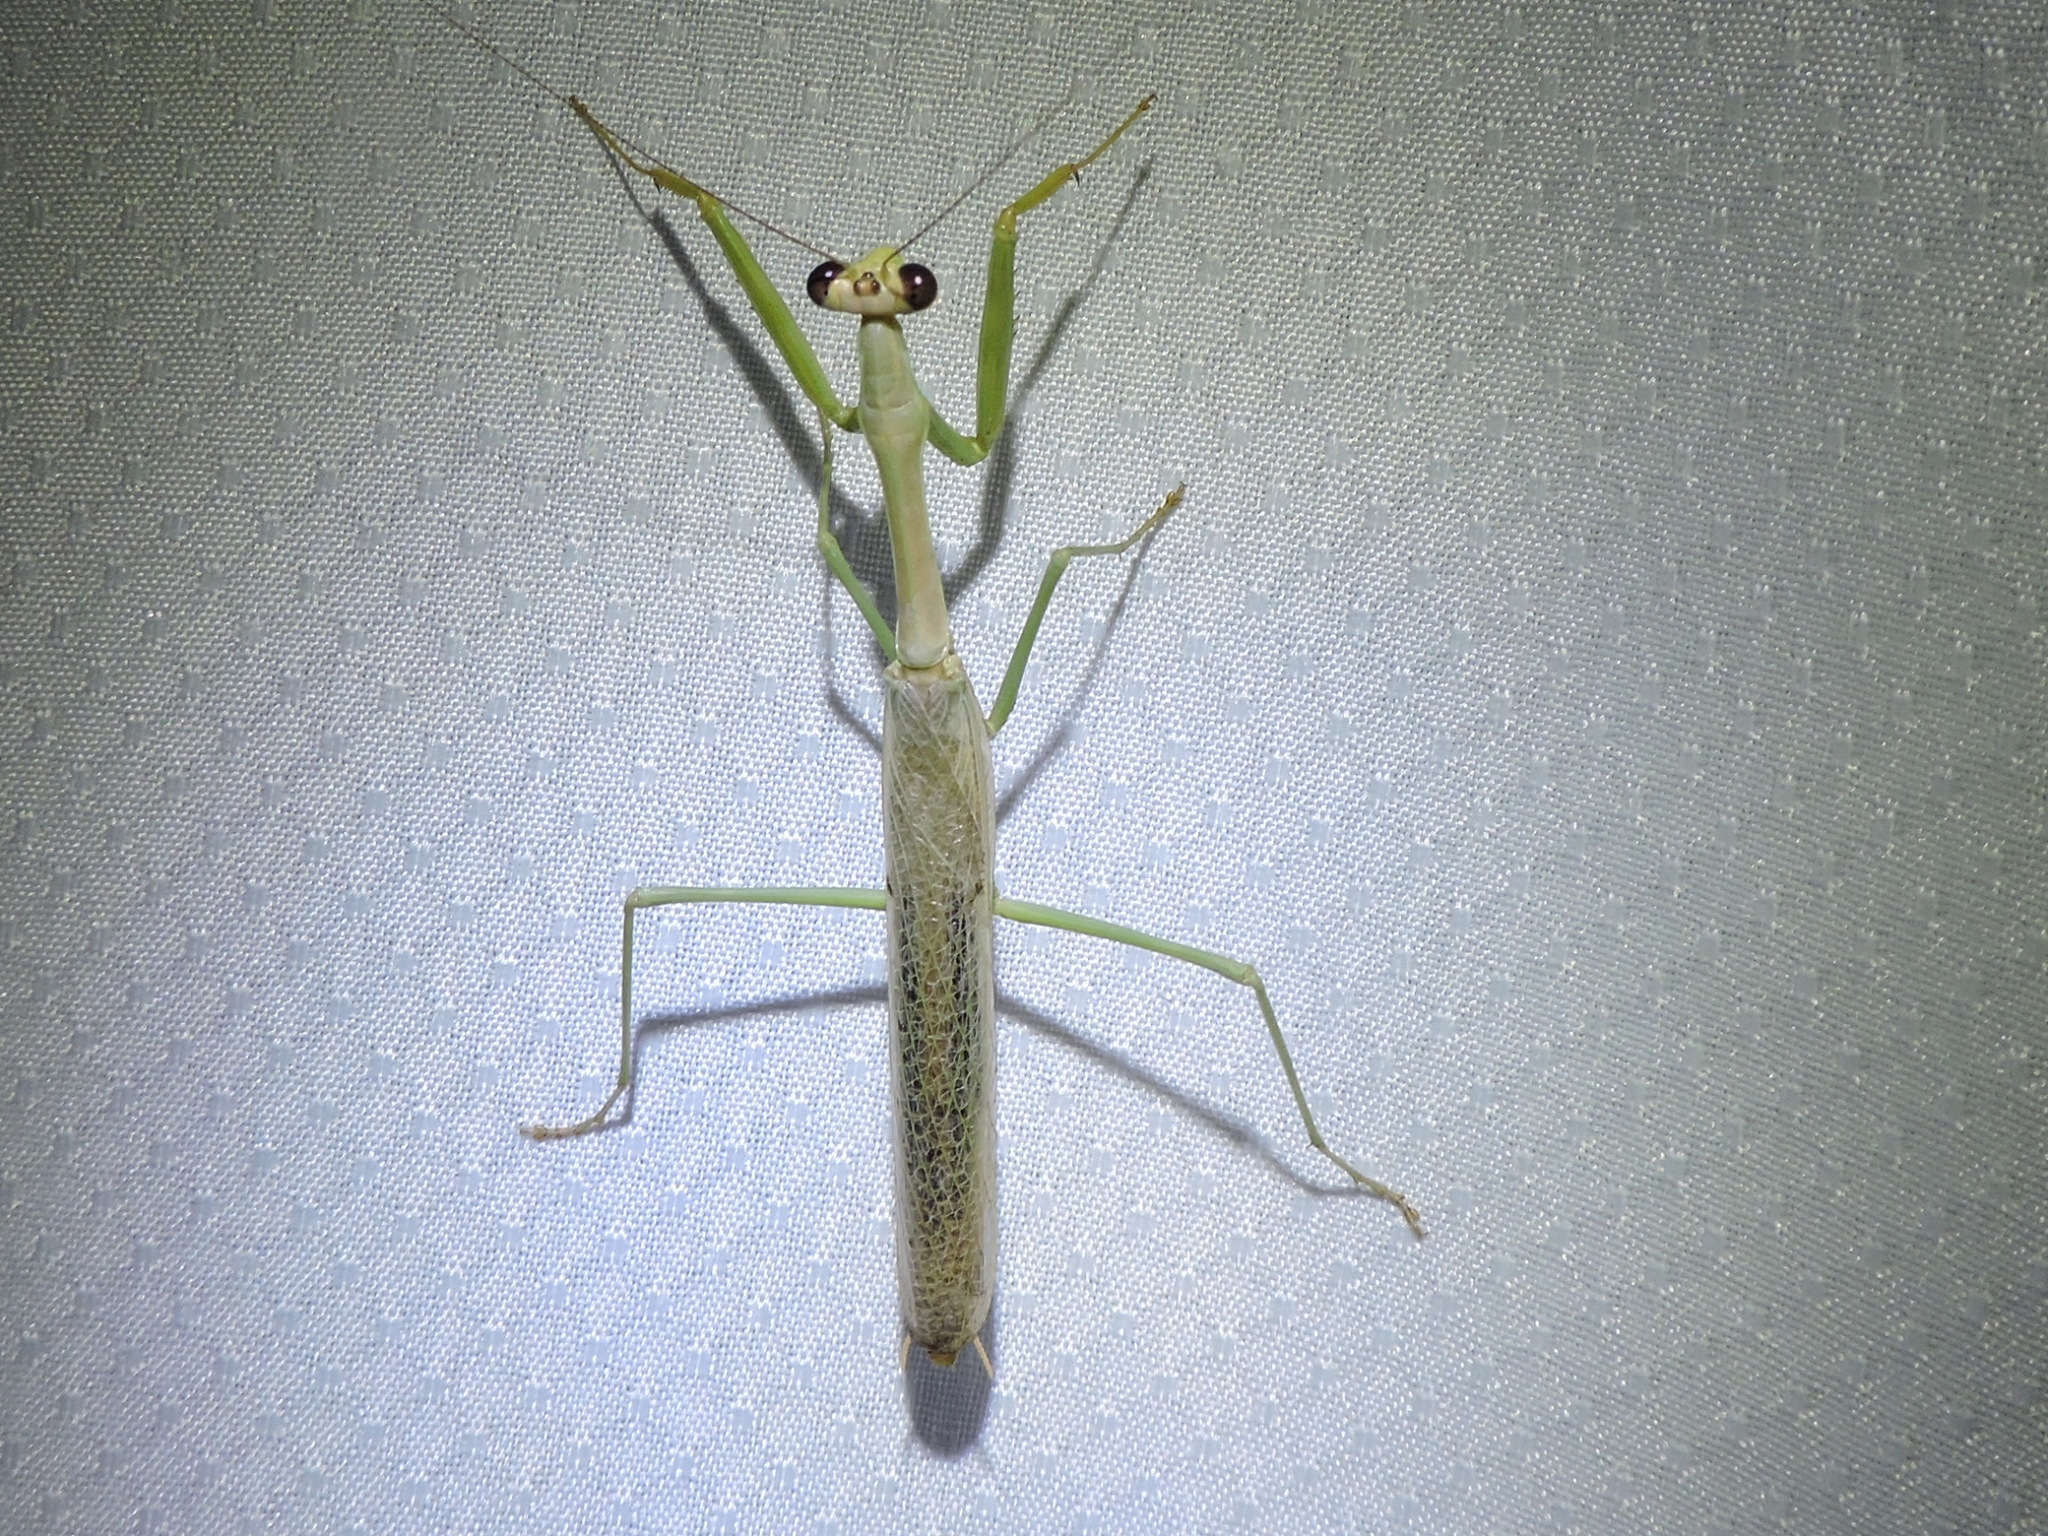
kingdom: Animalia
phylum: Arthropoda
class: Insecta
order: Mantodea
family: Mantidae
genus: Stagmomantis
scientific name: Stagmomantis carolina
